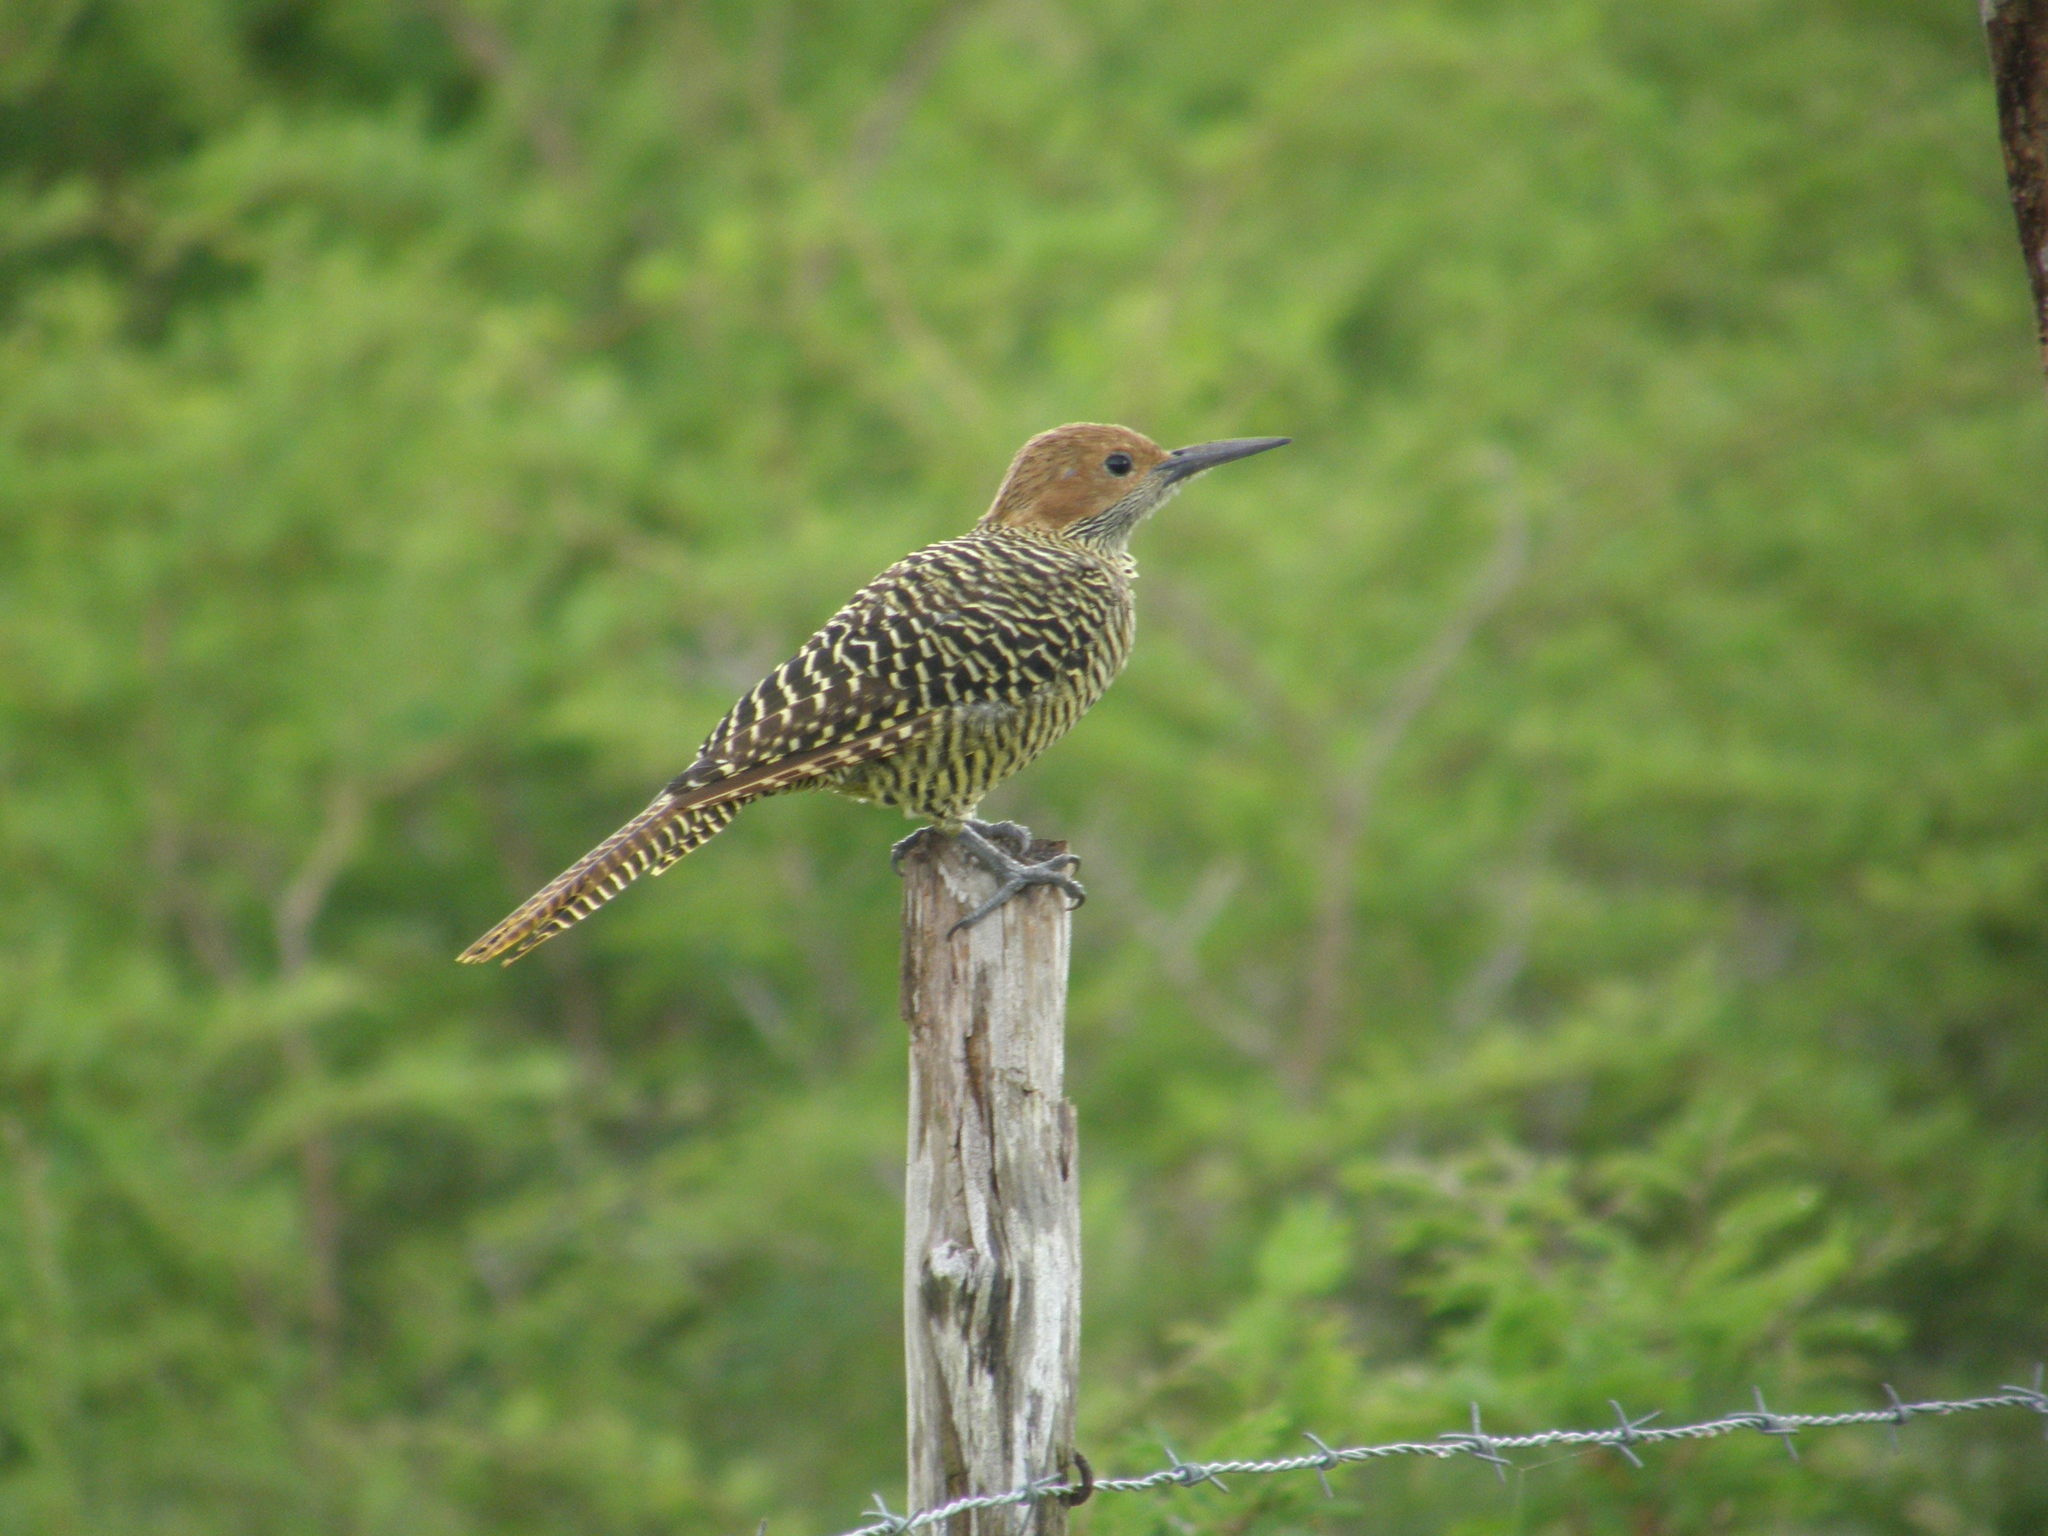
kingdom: Animalia
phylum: Chordata
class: Aves
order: Piciformes
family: Picidae
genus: Colaptes
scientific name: Colaptes fernandinae
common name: Fernandina's flicker
